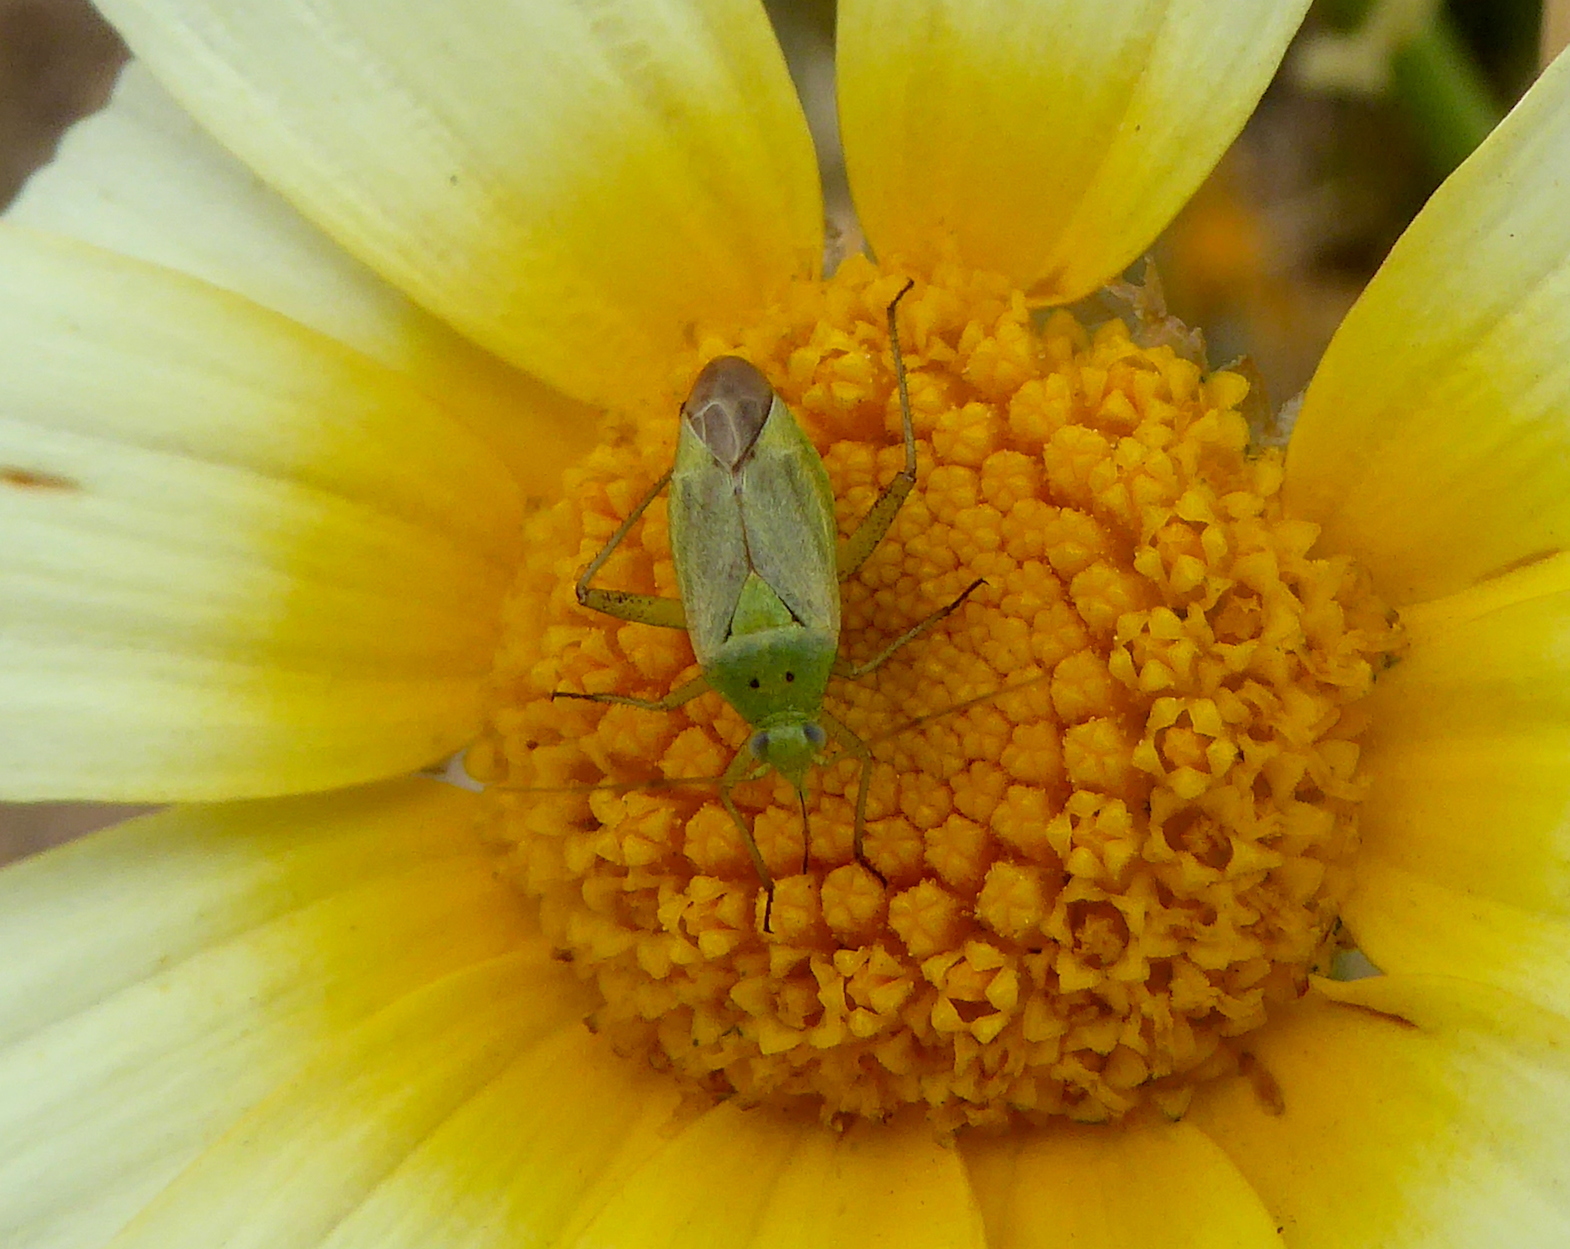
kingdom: Animalia
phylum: Arthropoda
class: Insecta
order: Hemiptera
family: Miridae
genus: Closterotomus
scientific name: Closterotomus norvegicus
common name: Plant bug
